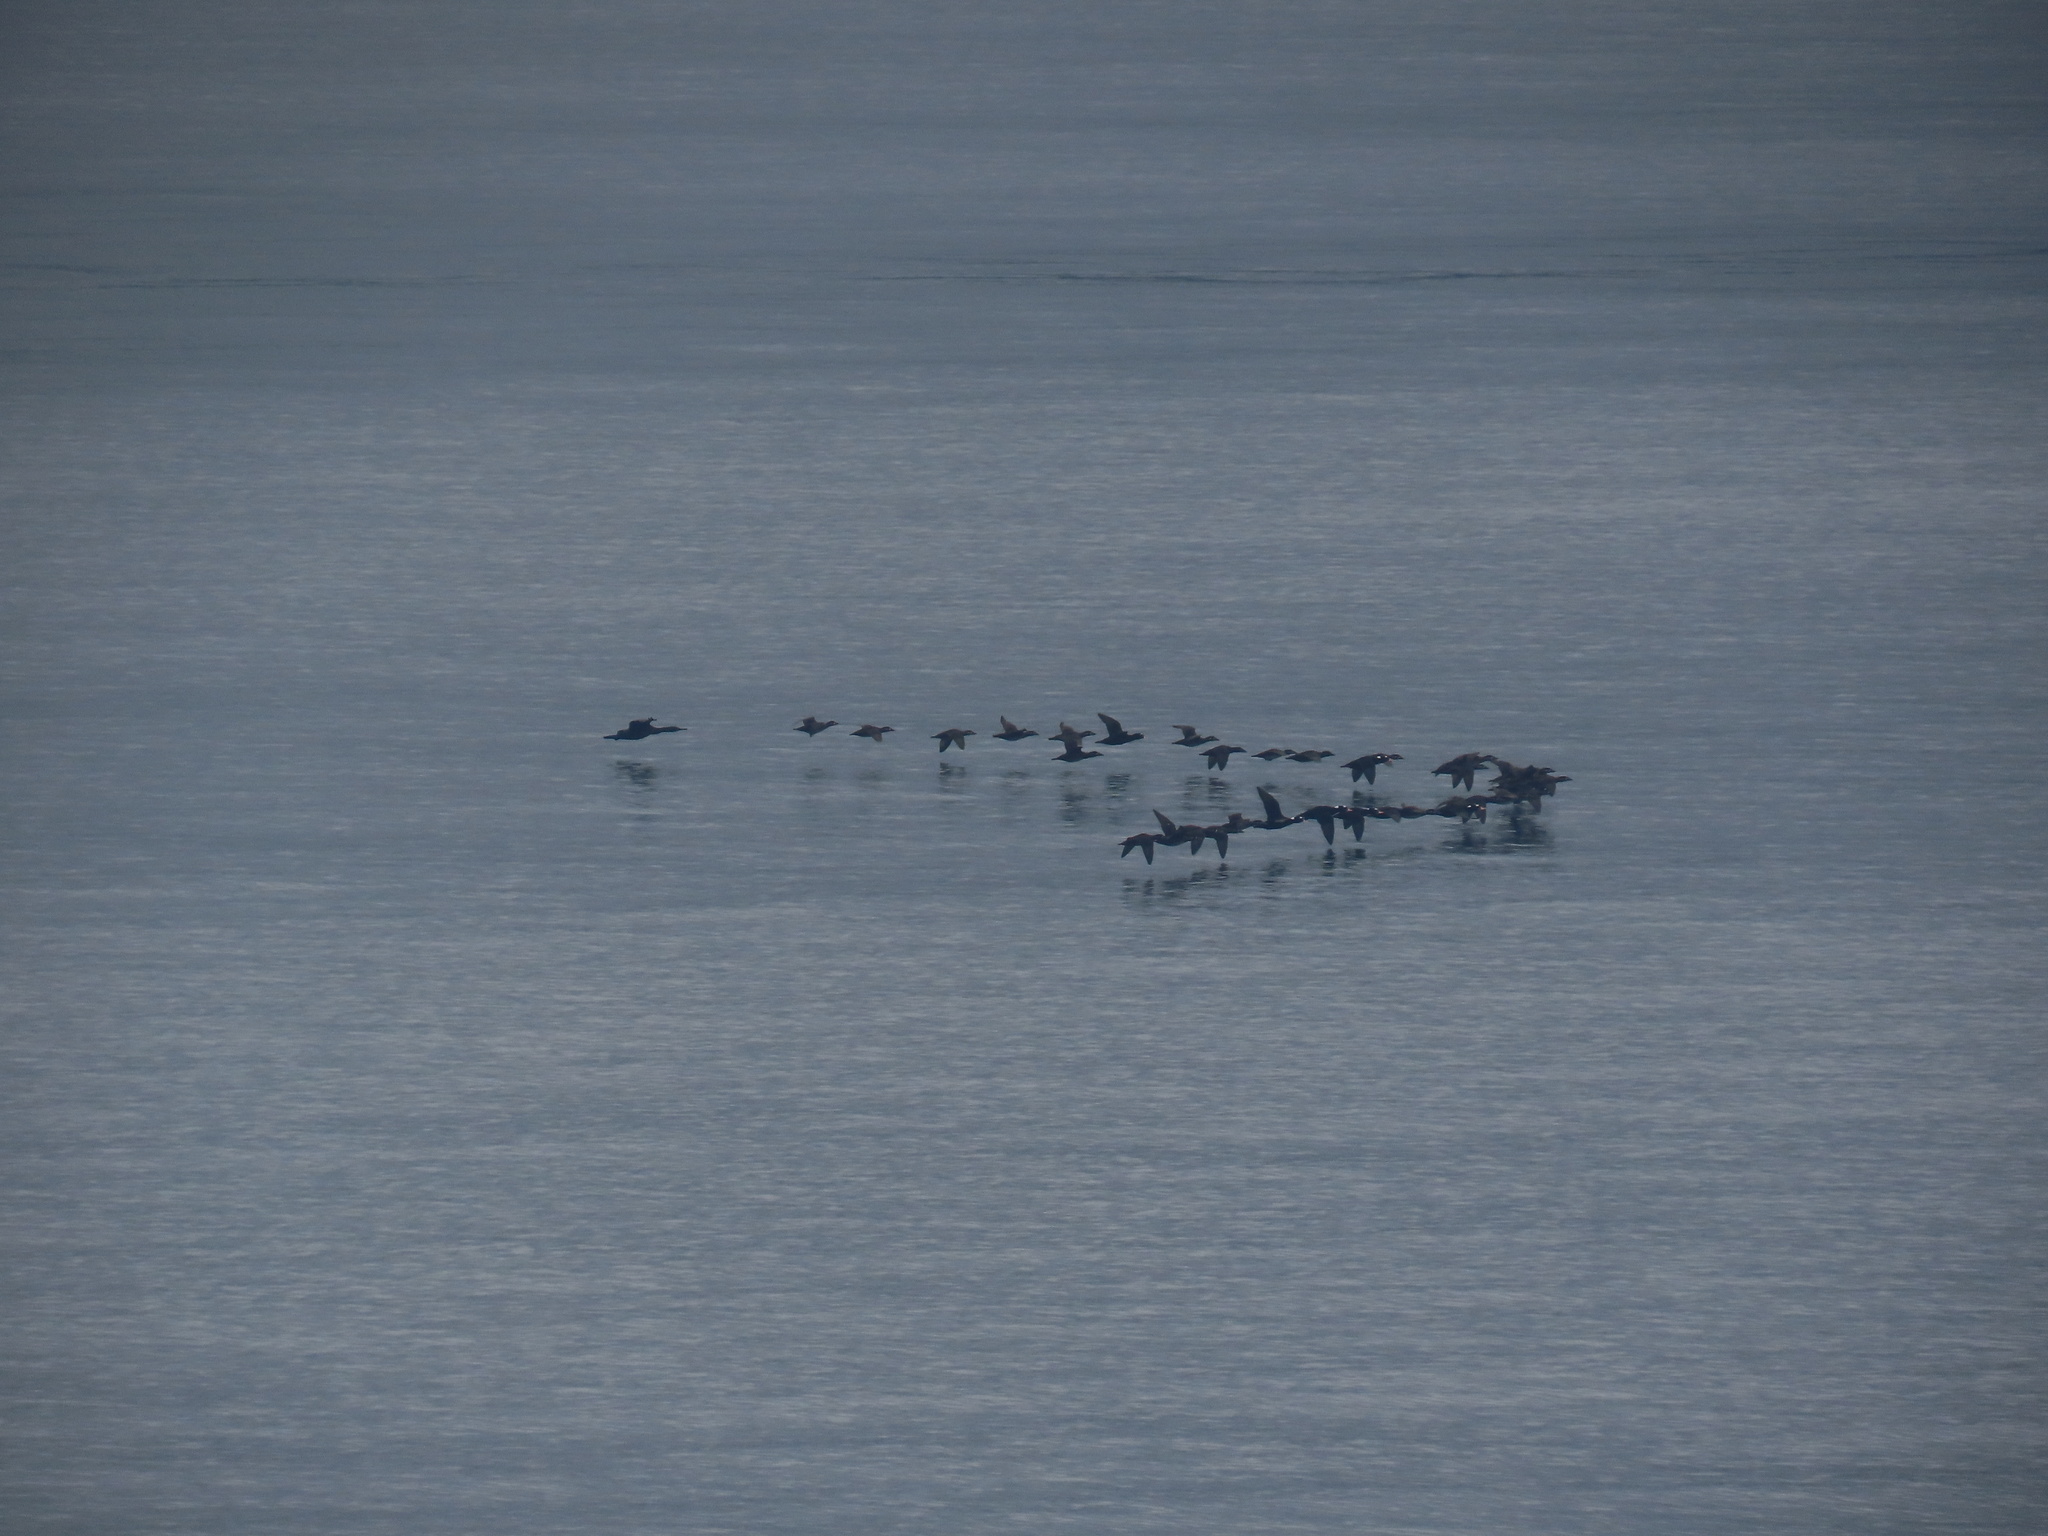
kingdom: Animalia
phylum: Chordata
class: Aves
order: Anseriformes
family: Anatidae
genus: Melanitta
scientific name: Melanitta perspicillata
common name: Surf scoter
